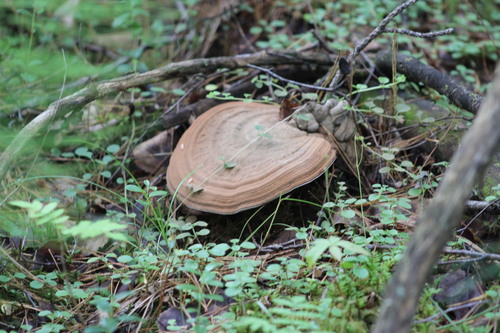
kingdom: Fungi
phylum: Basidiomycota
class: Agaricomycetes
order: Polyporales
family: Polyporaceae
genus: Ganoderma
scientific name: Ganoderma applanatum
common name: Artist's bracket
